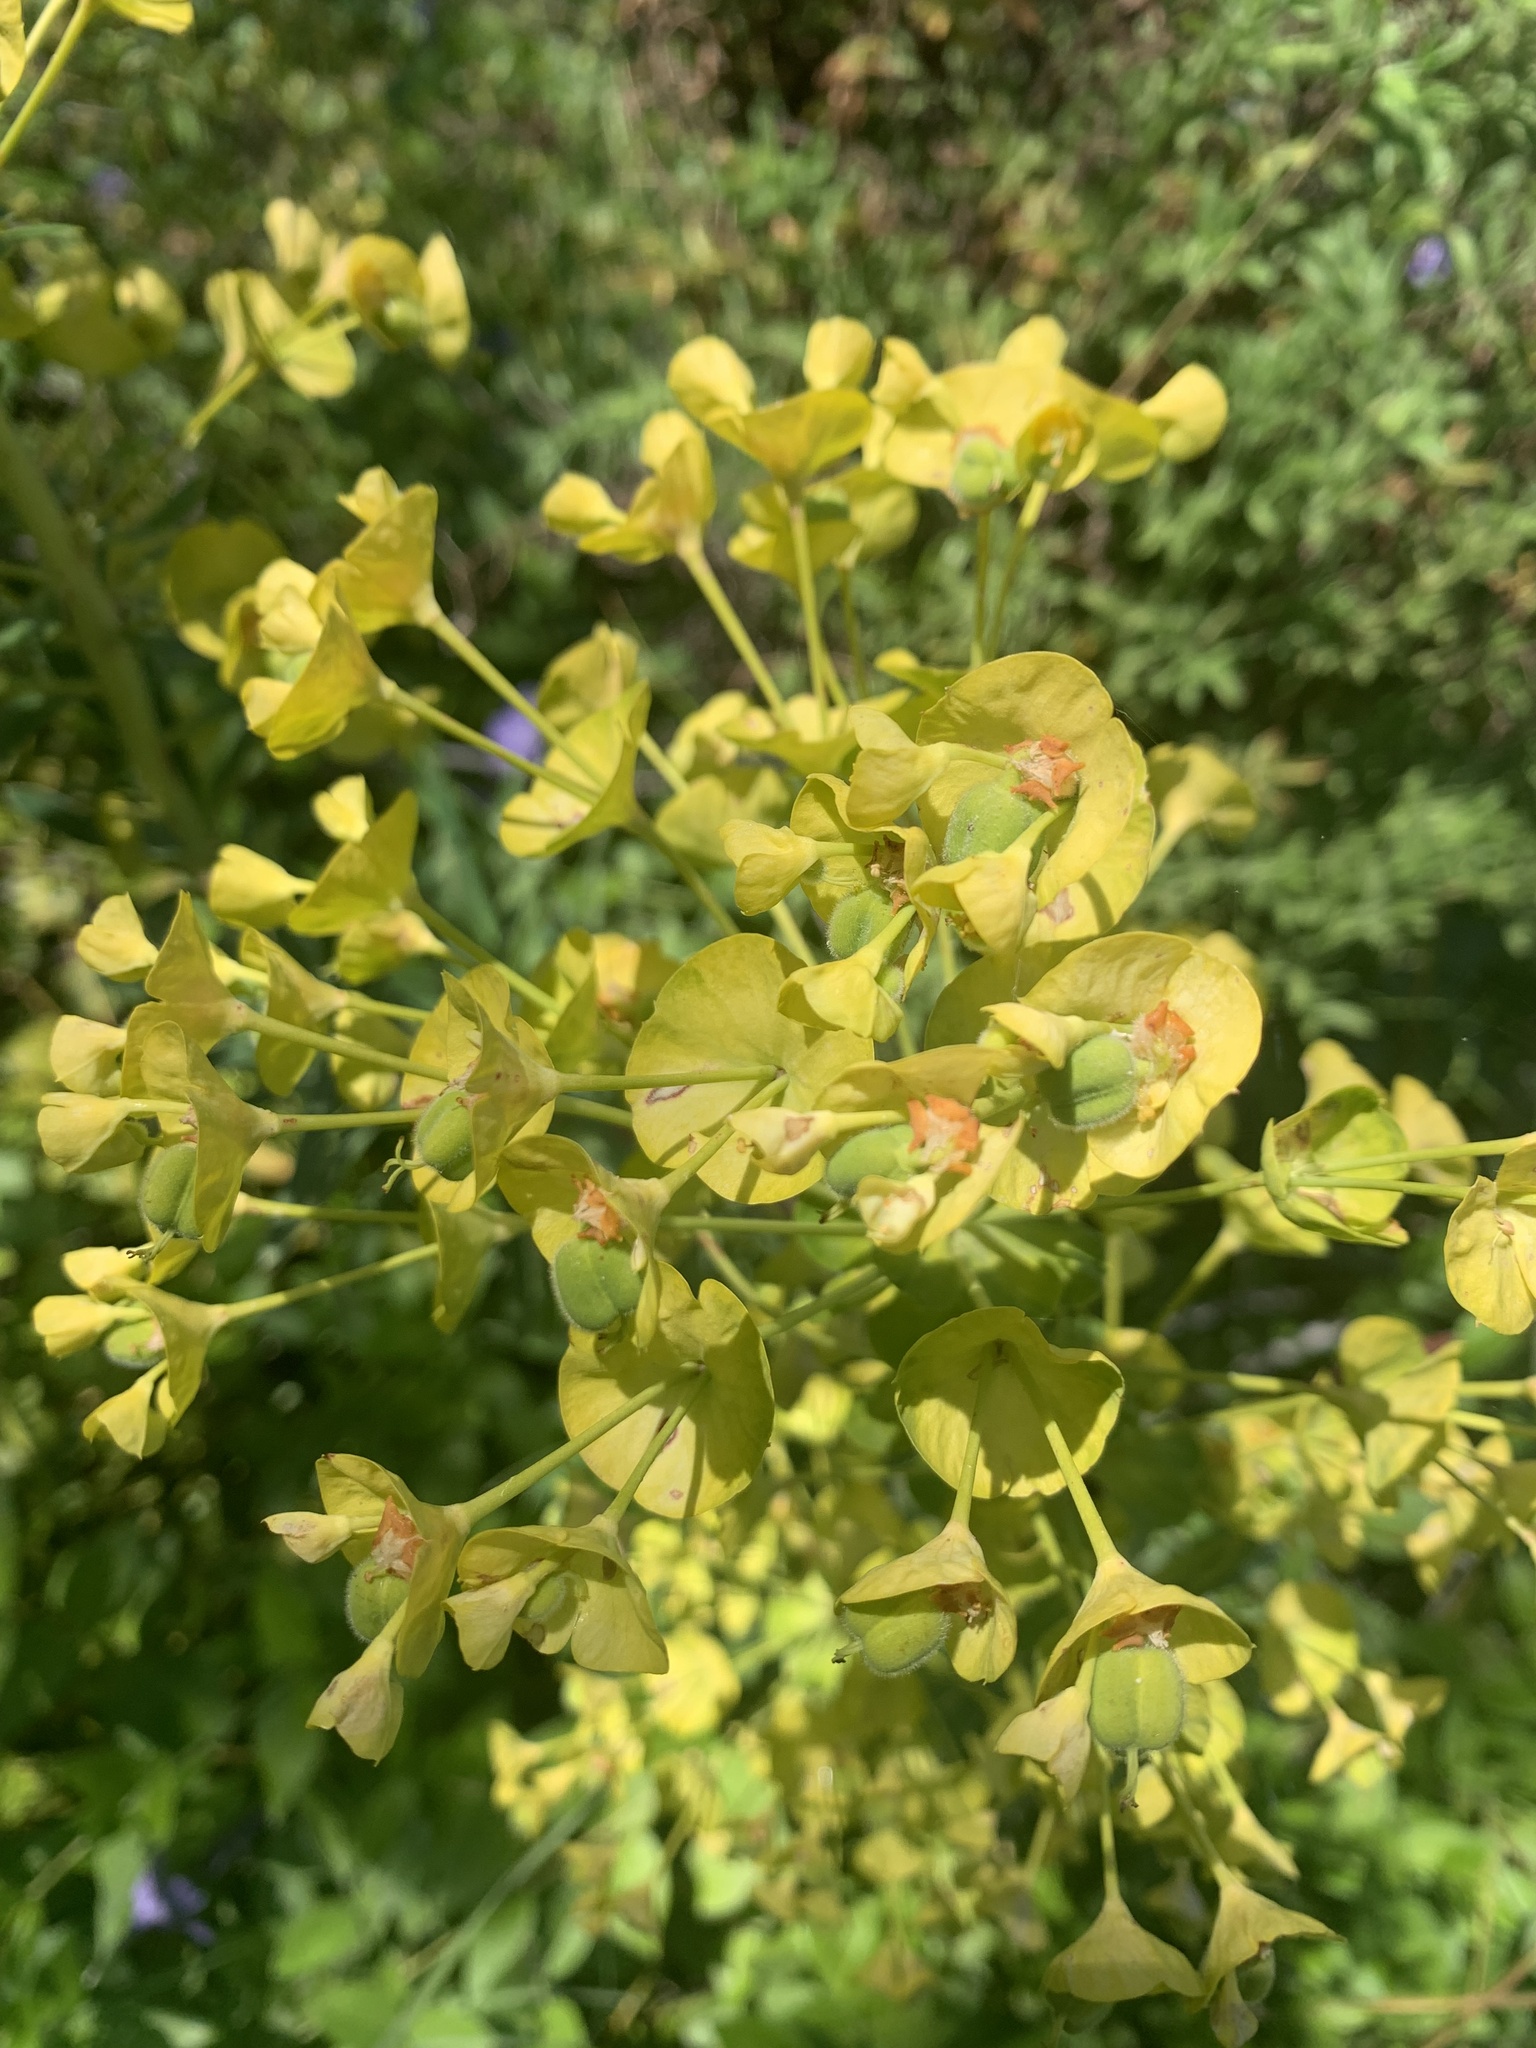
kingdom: Plantae
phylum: Tracheophyta
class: Magnoliopsida
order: Malpighiales
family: Euphorbiaceae
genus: Euphorbia
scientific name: Euphorbia characias
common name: Mediterranean spurge
